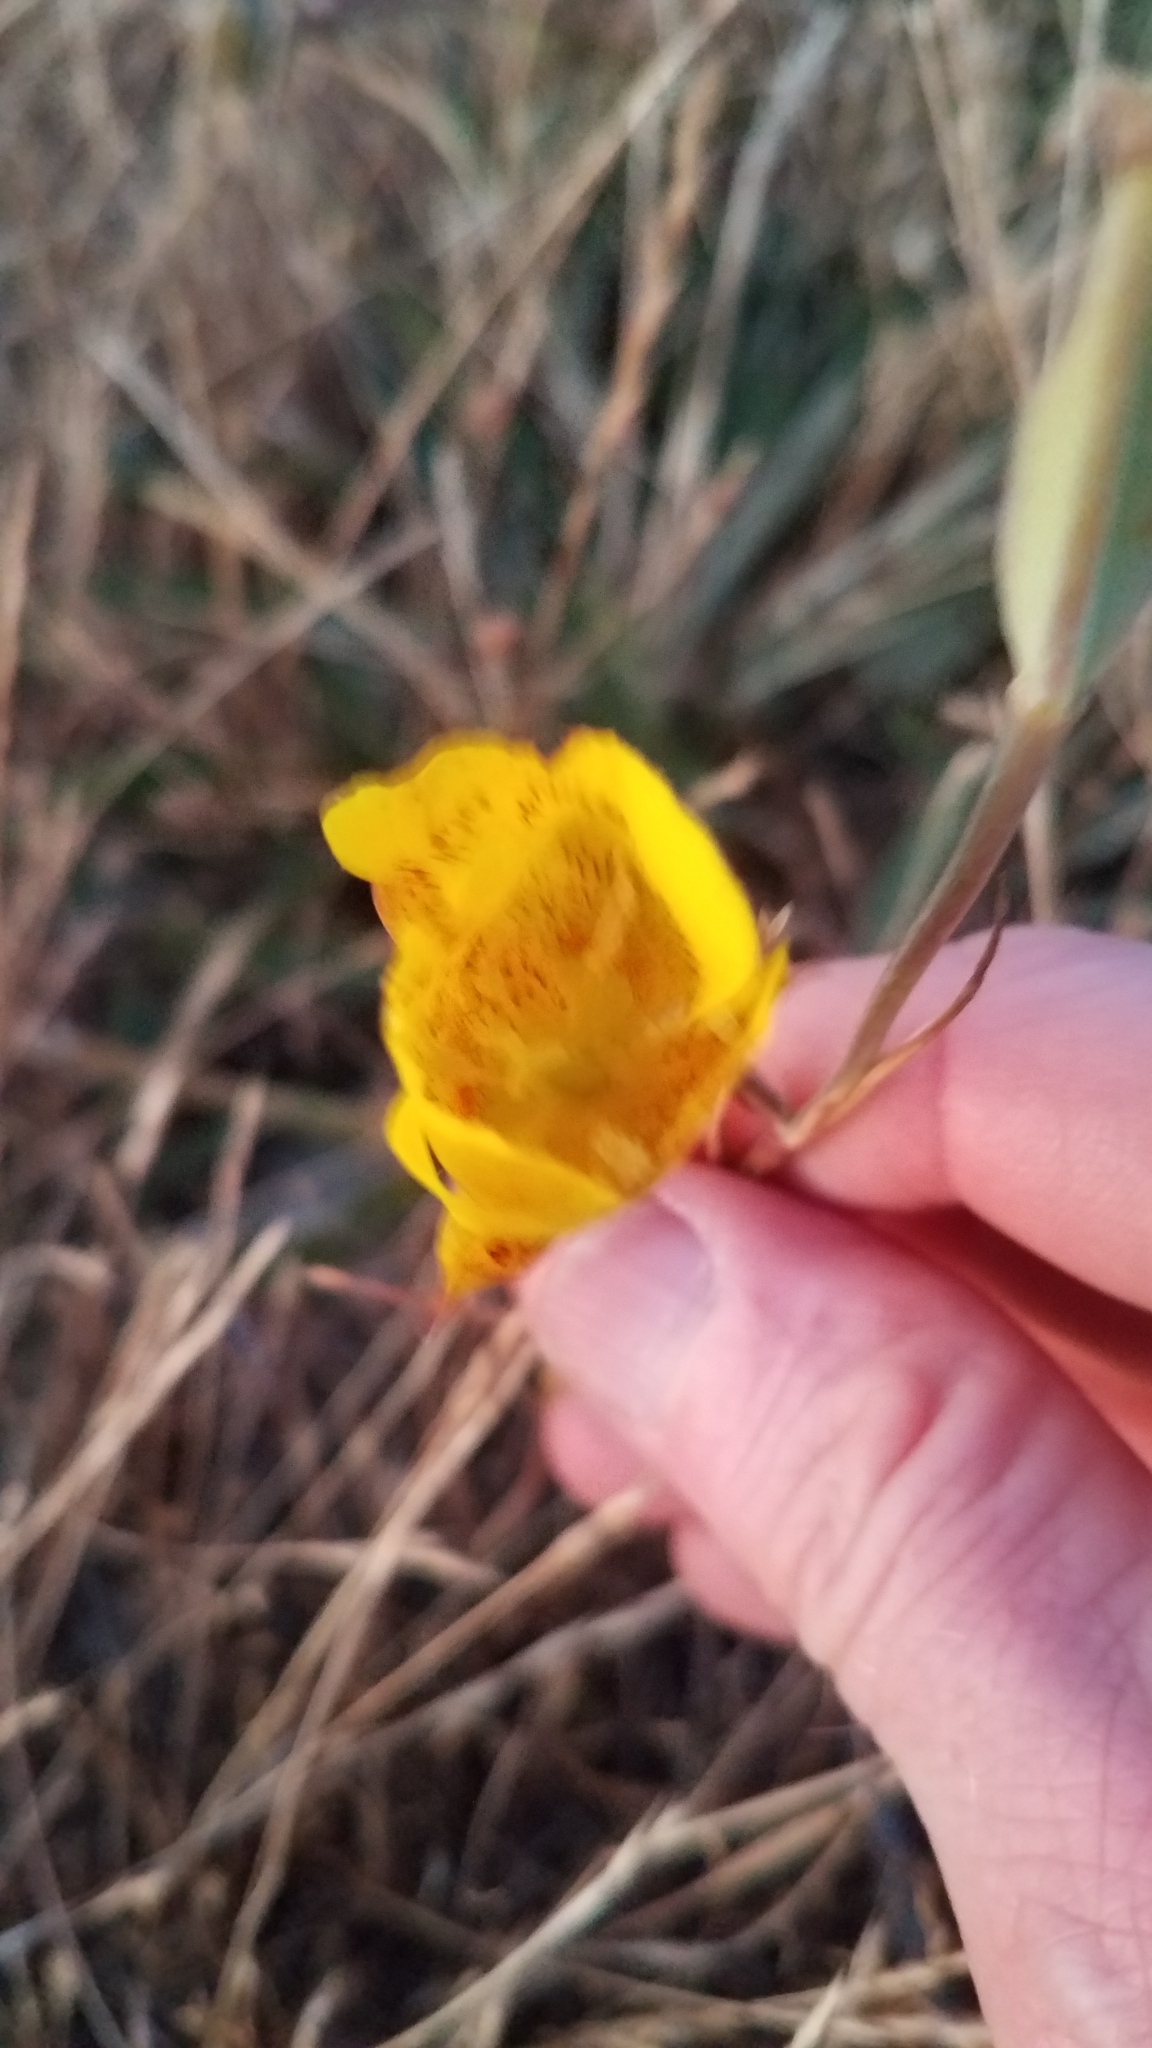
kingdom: Plantae
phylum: Tracheophyta
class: Liliopsida
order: Liliales
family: Liliaceae
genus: Calochortus
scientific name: Calochortus luteus
